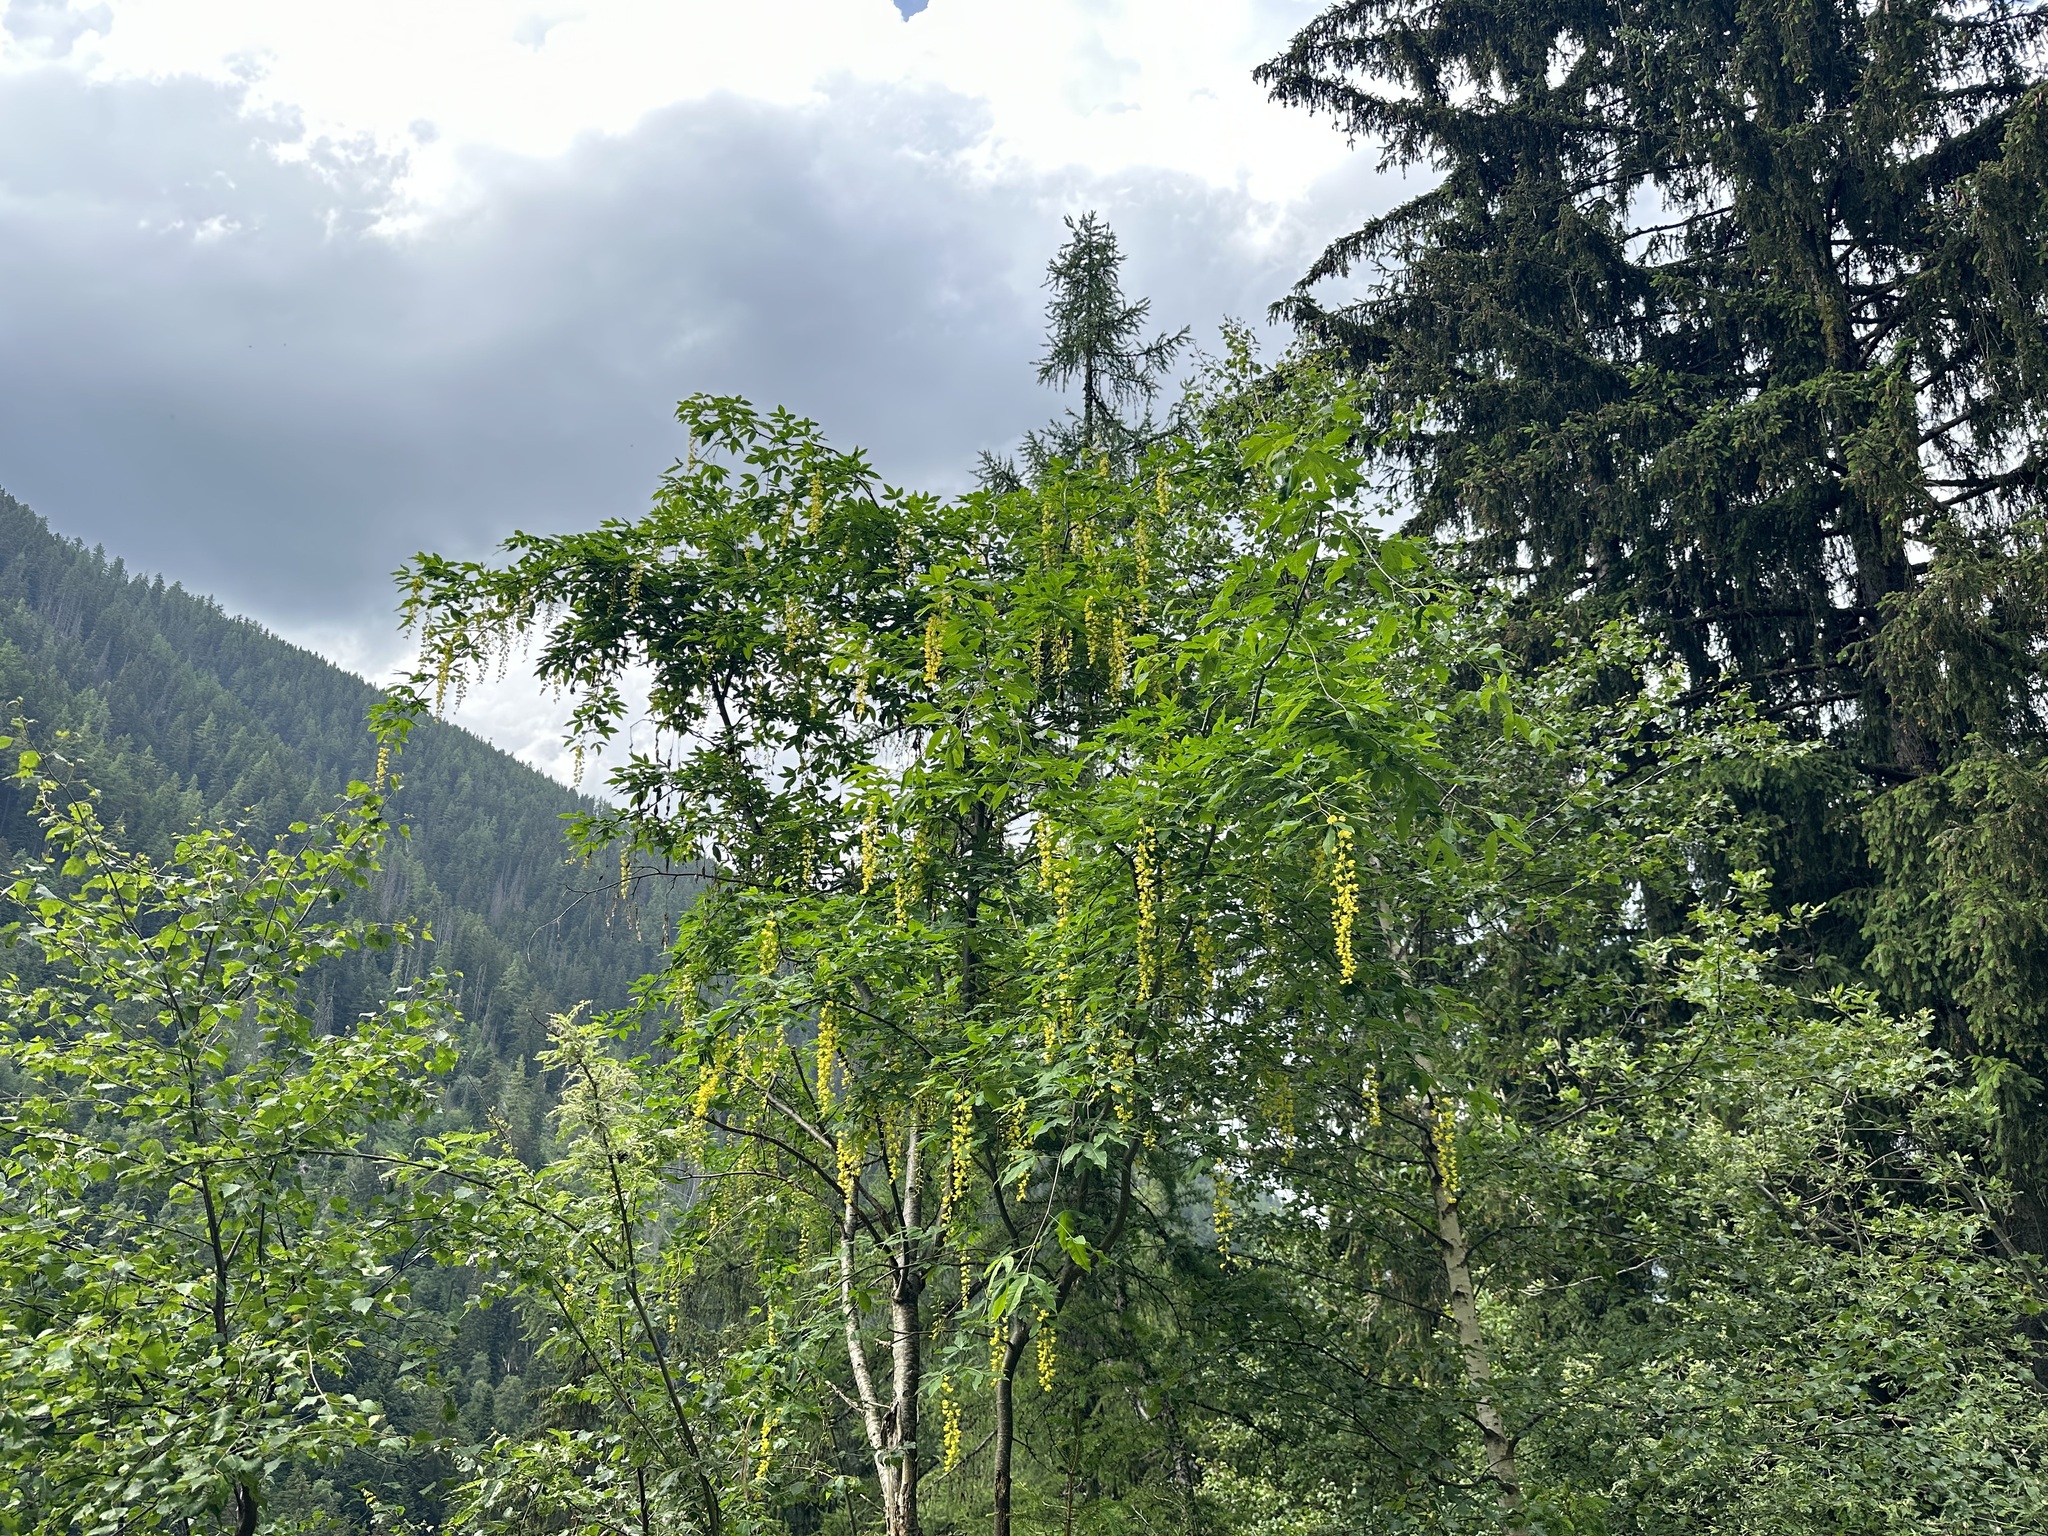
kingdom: Plantae
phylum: Tracheophyta
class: Magnoliopsida
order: Fabales
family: Fabaceae
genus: Laburnum
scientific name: Laburnum alpinum
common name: Scottish laburnum
